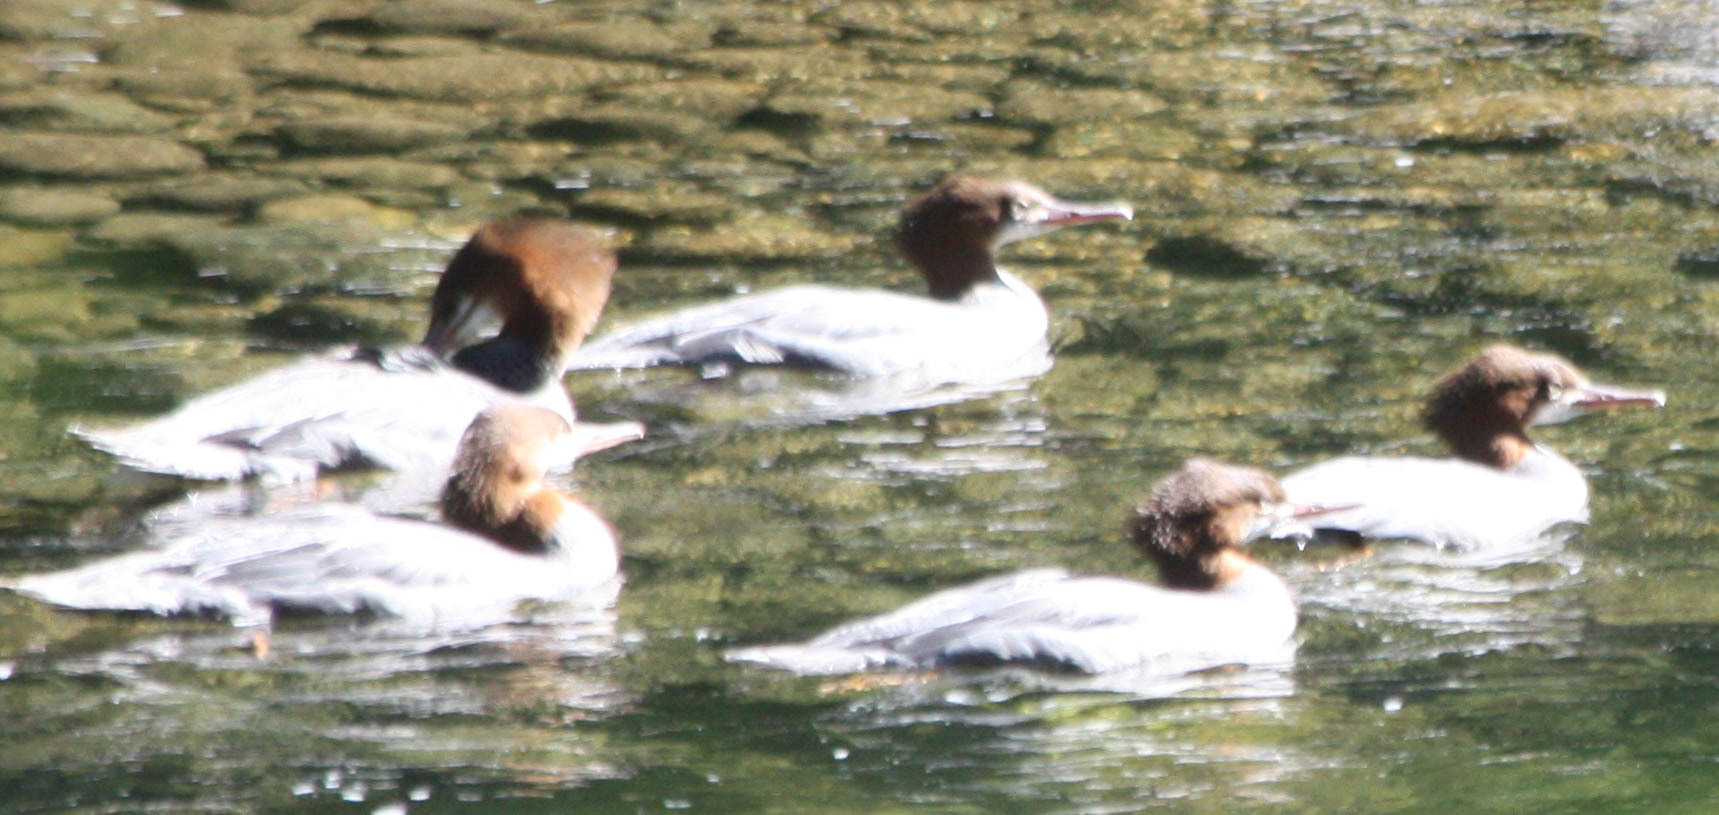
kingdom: Animalia
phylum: Chordata
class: Aves
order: Anseriformes
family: Anatidae
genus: Mergus
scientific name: Mergus merganser
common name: Common merganser
